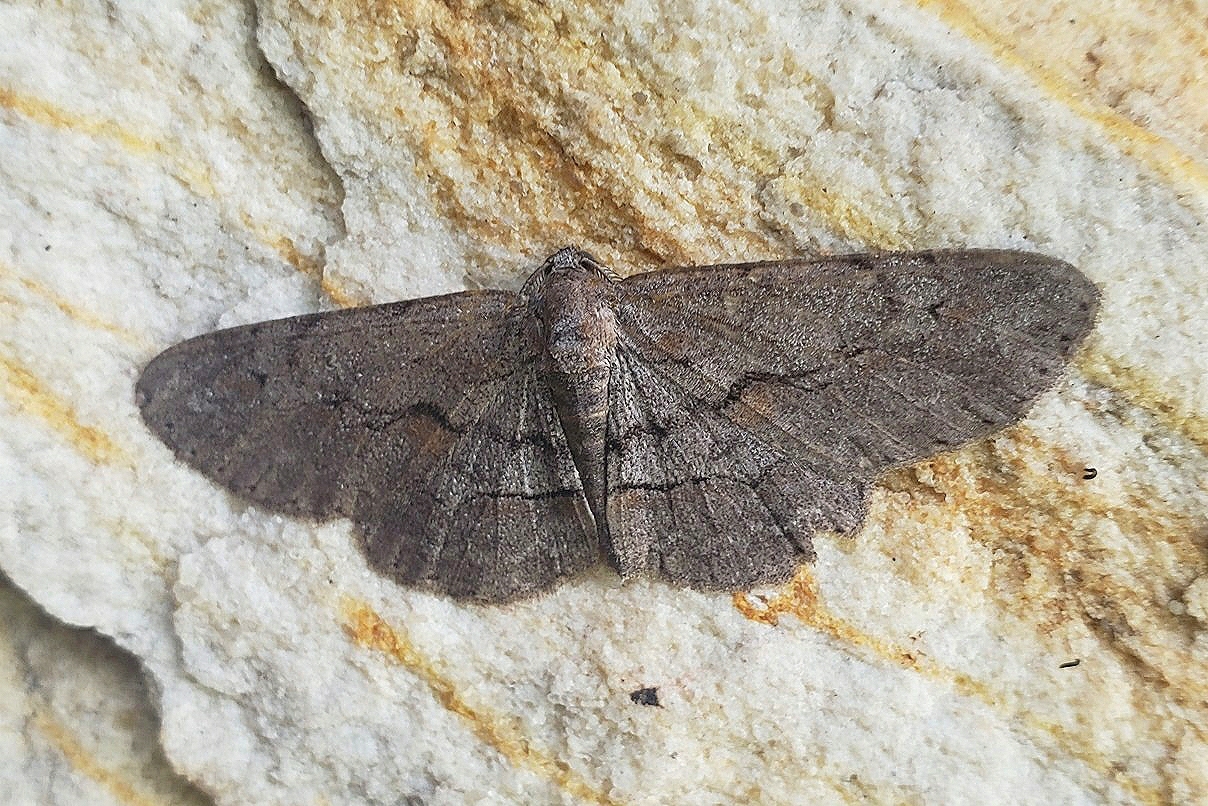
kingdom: Animalia
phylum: Arthropoda
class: Insecta
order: Lepidoptera
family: Geometridae
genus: Iridopsis
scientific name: Iridopsis vellivolata
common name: Large purplish gray
